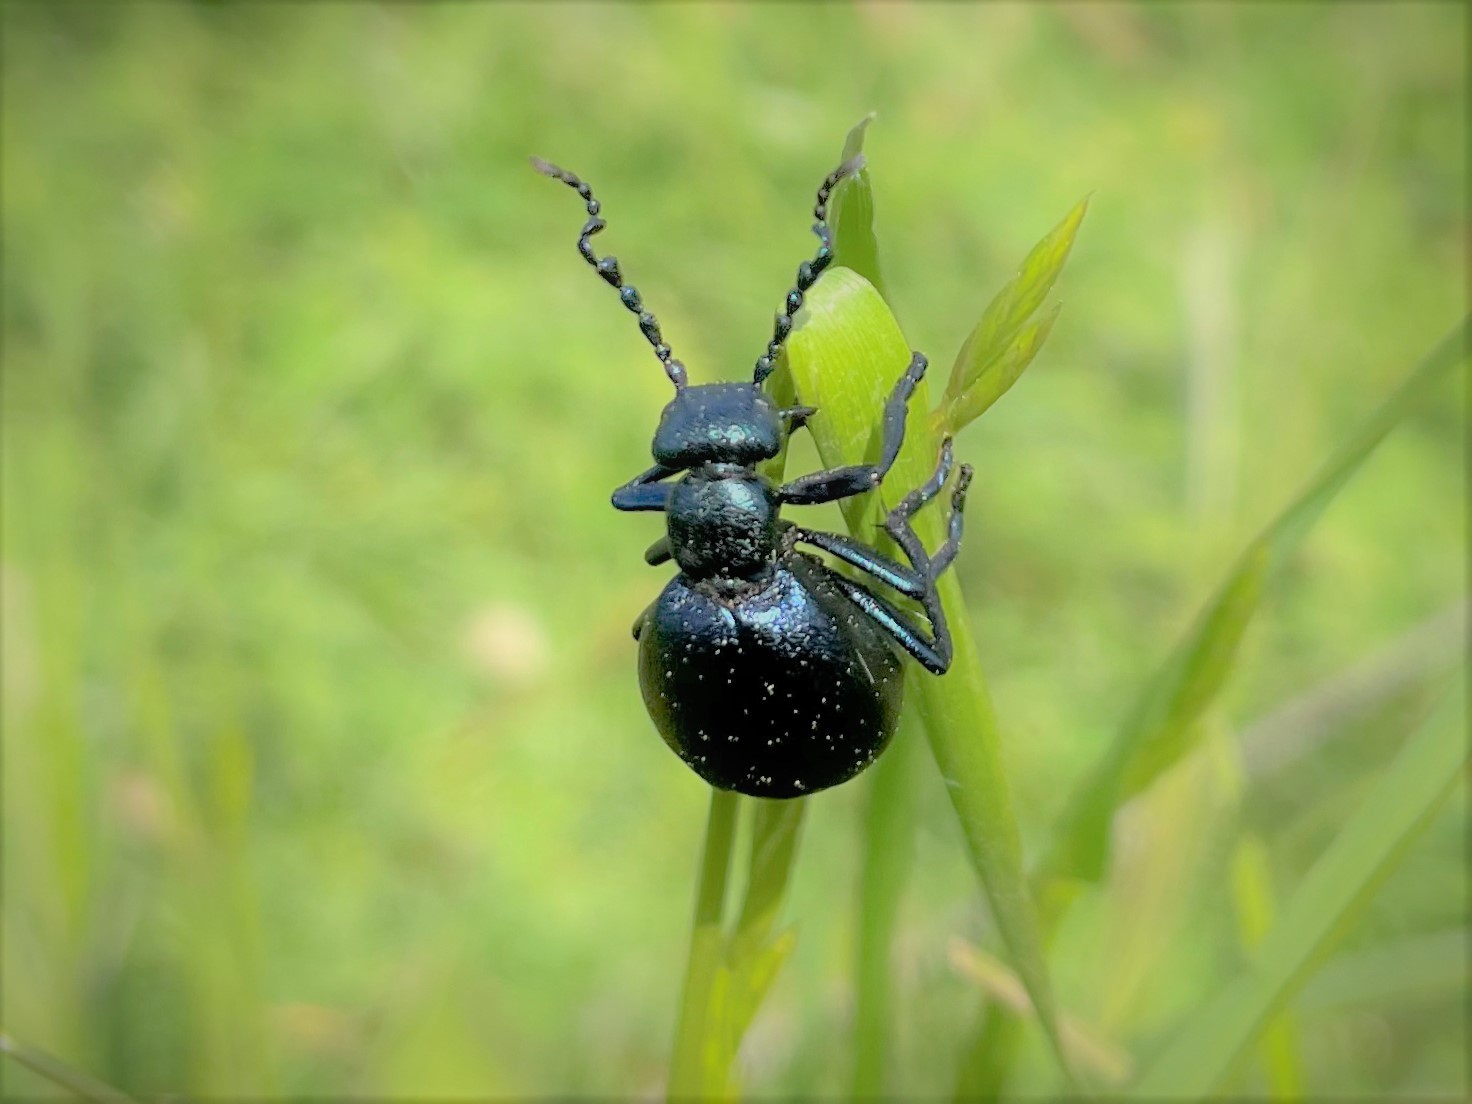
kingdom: Animalia
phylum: Arthropoda
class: Insecta
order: Coleoptera
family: Meloidae
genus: Meloe
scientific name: Meloe violaceus
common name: Violet oil-beetle
